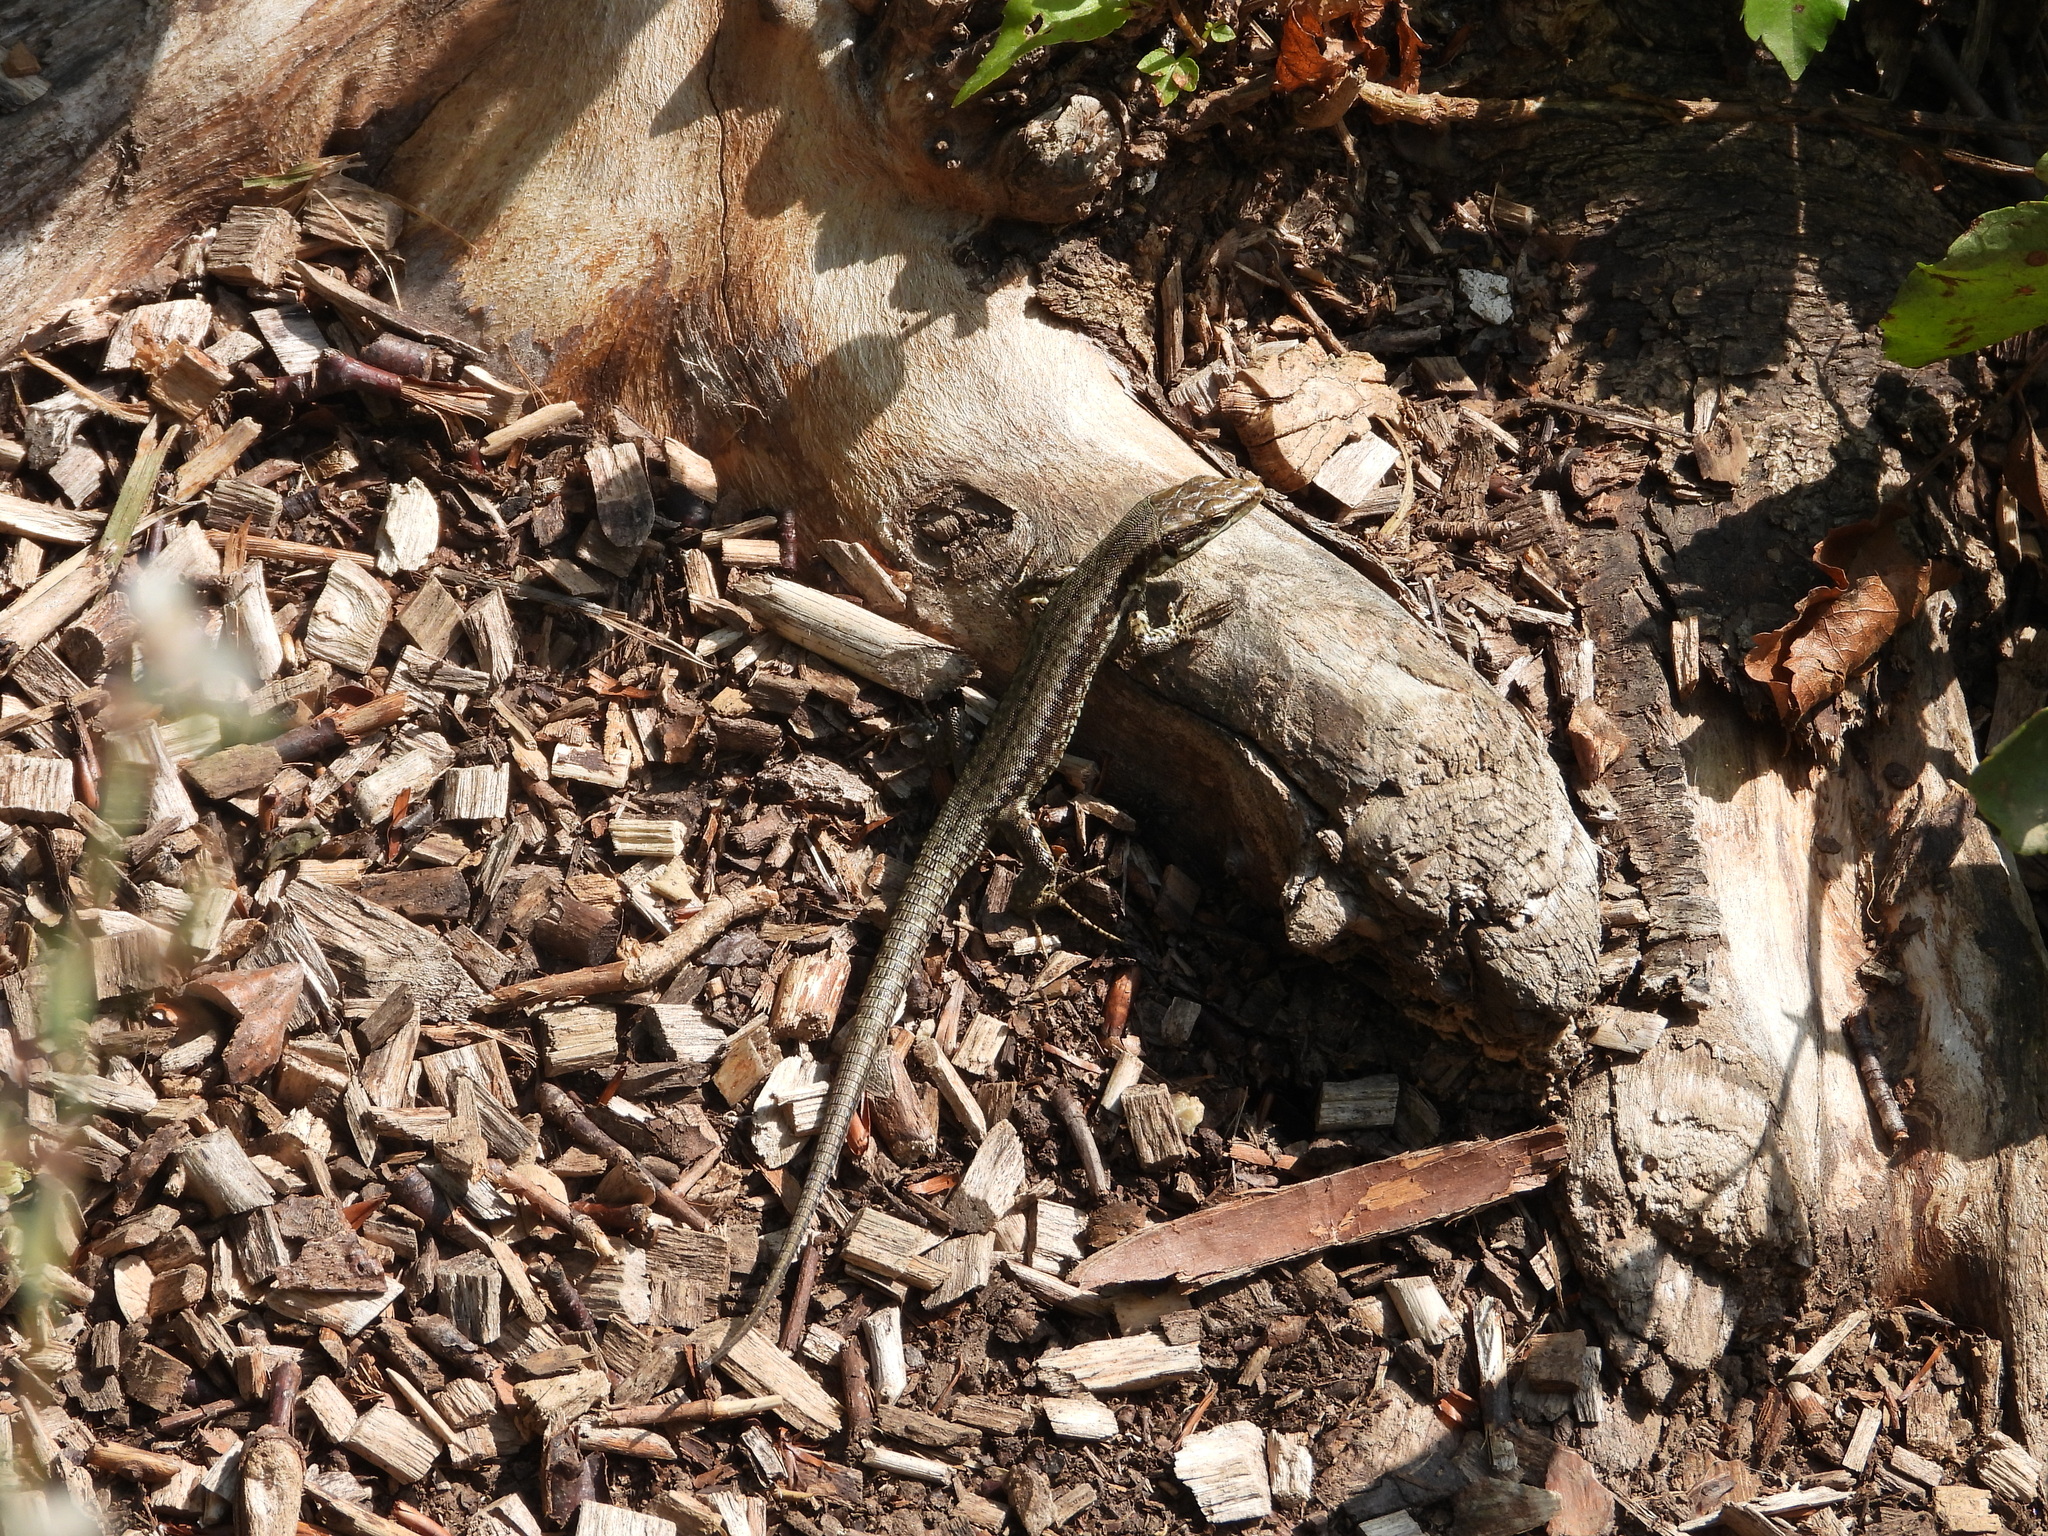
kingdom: Animalia
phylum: Chordata
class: Squamata
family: Lacertidae
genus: Podarcis
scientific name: Podarcis muralis
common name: Common wall lizard
